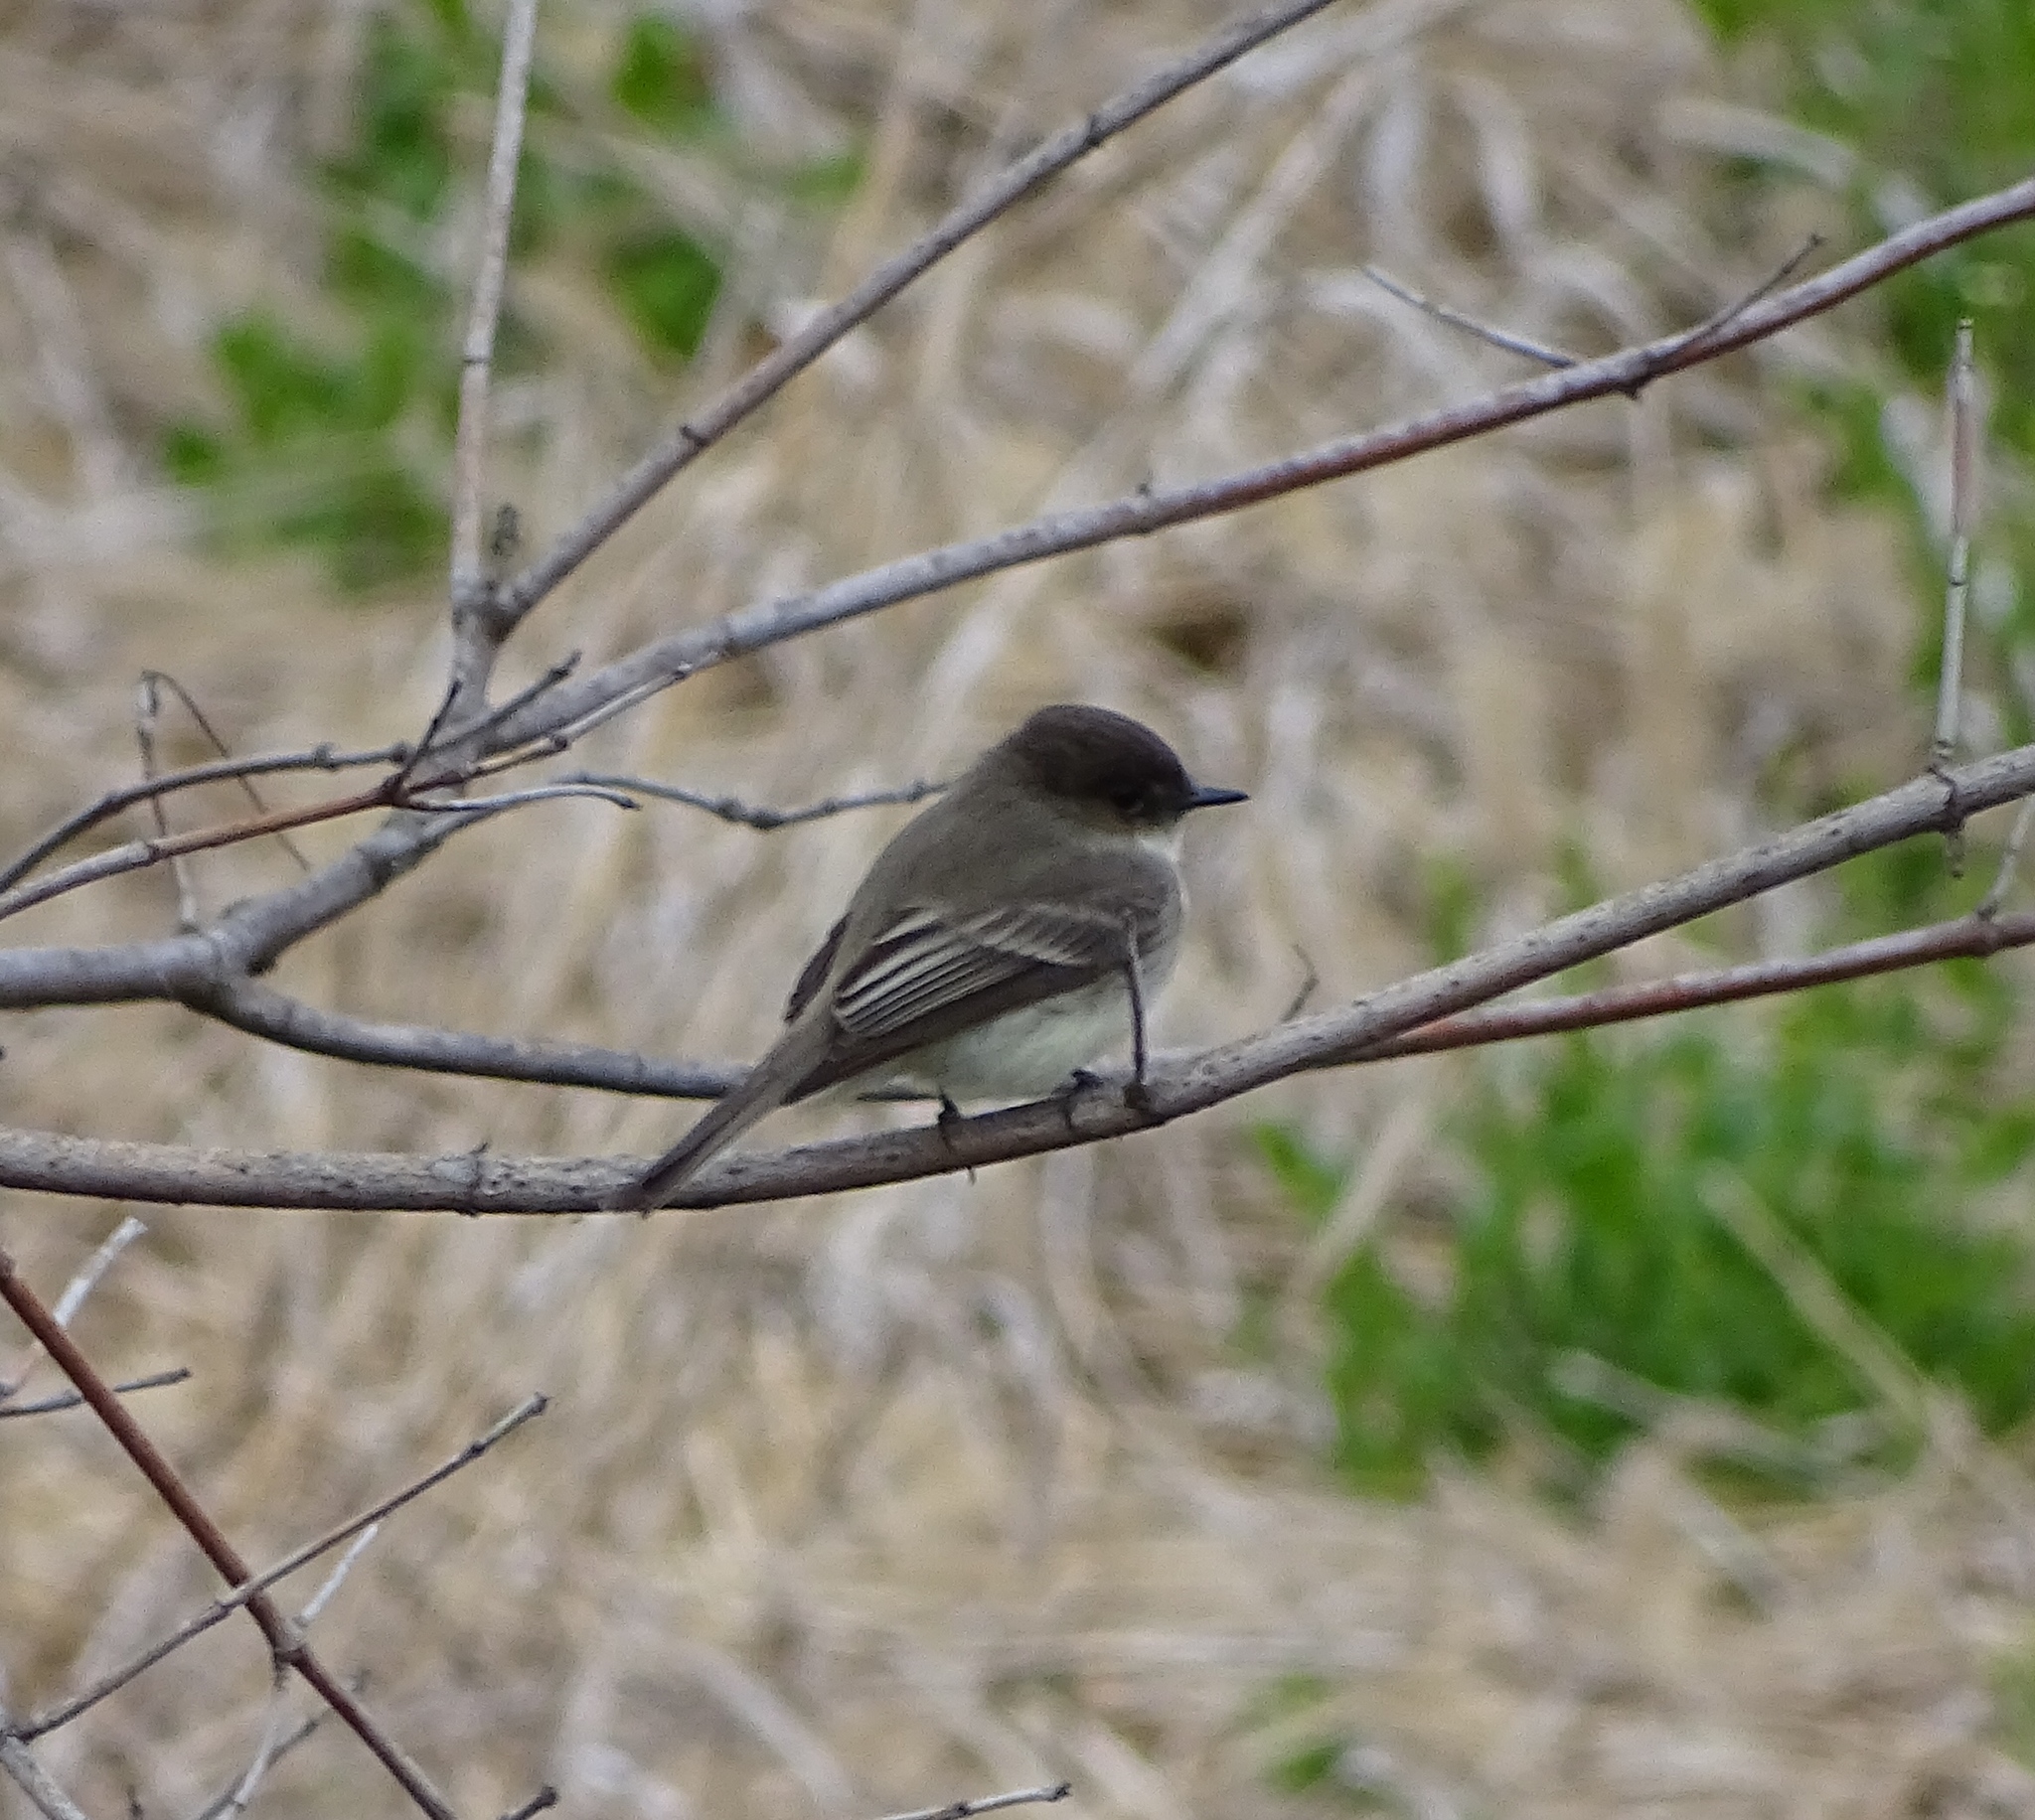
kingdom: Animalia
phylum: Chordata
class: Aves
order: Passeriformes
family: Tyrannidae
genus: Sayornis
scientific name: Sayornis phoebe
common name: Eastern phoebe
